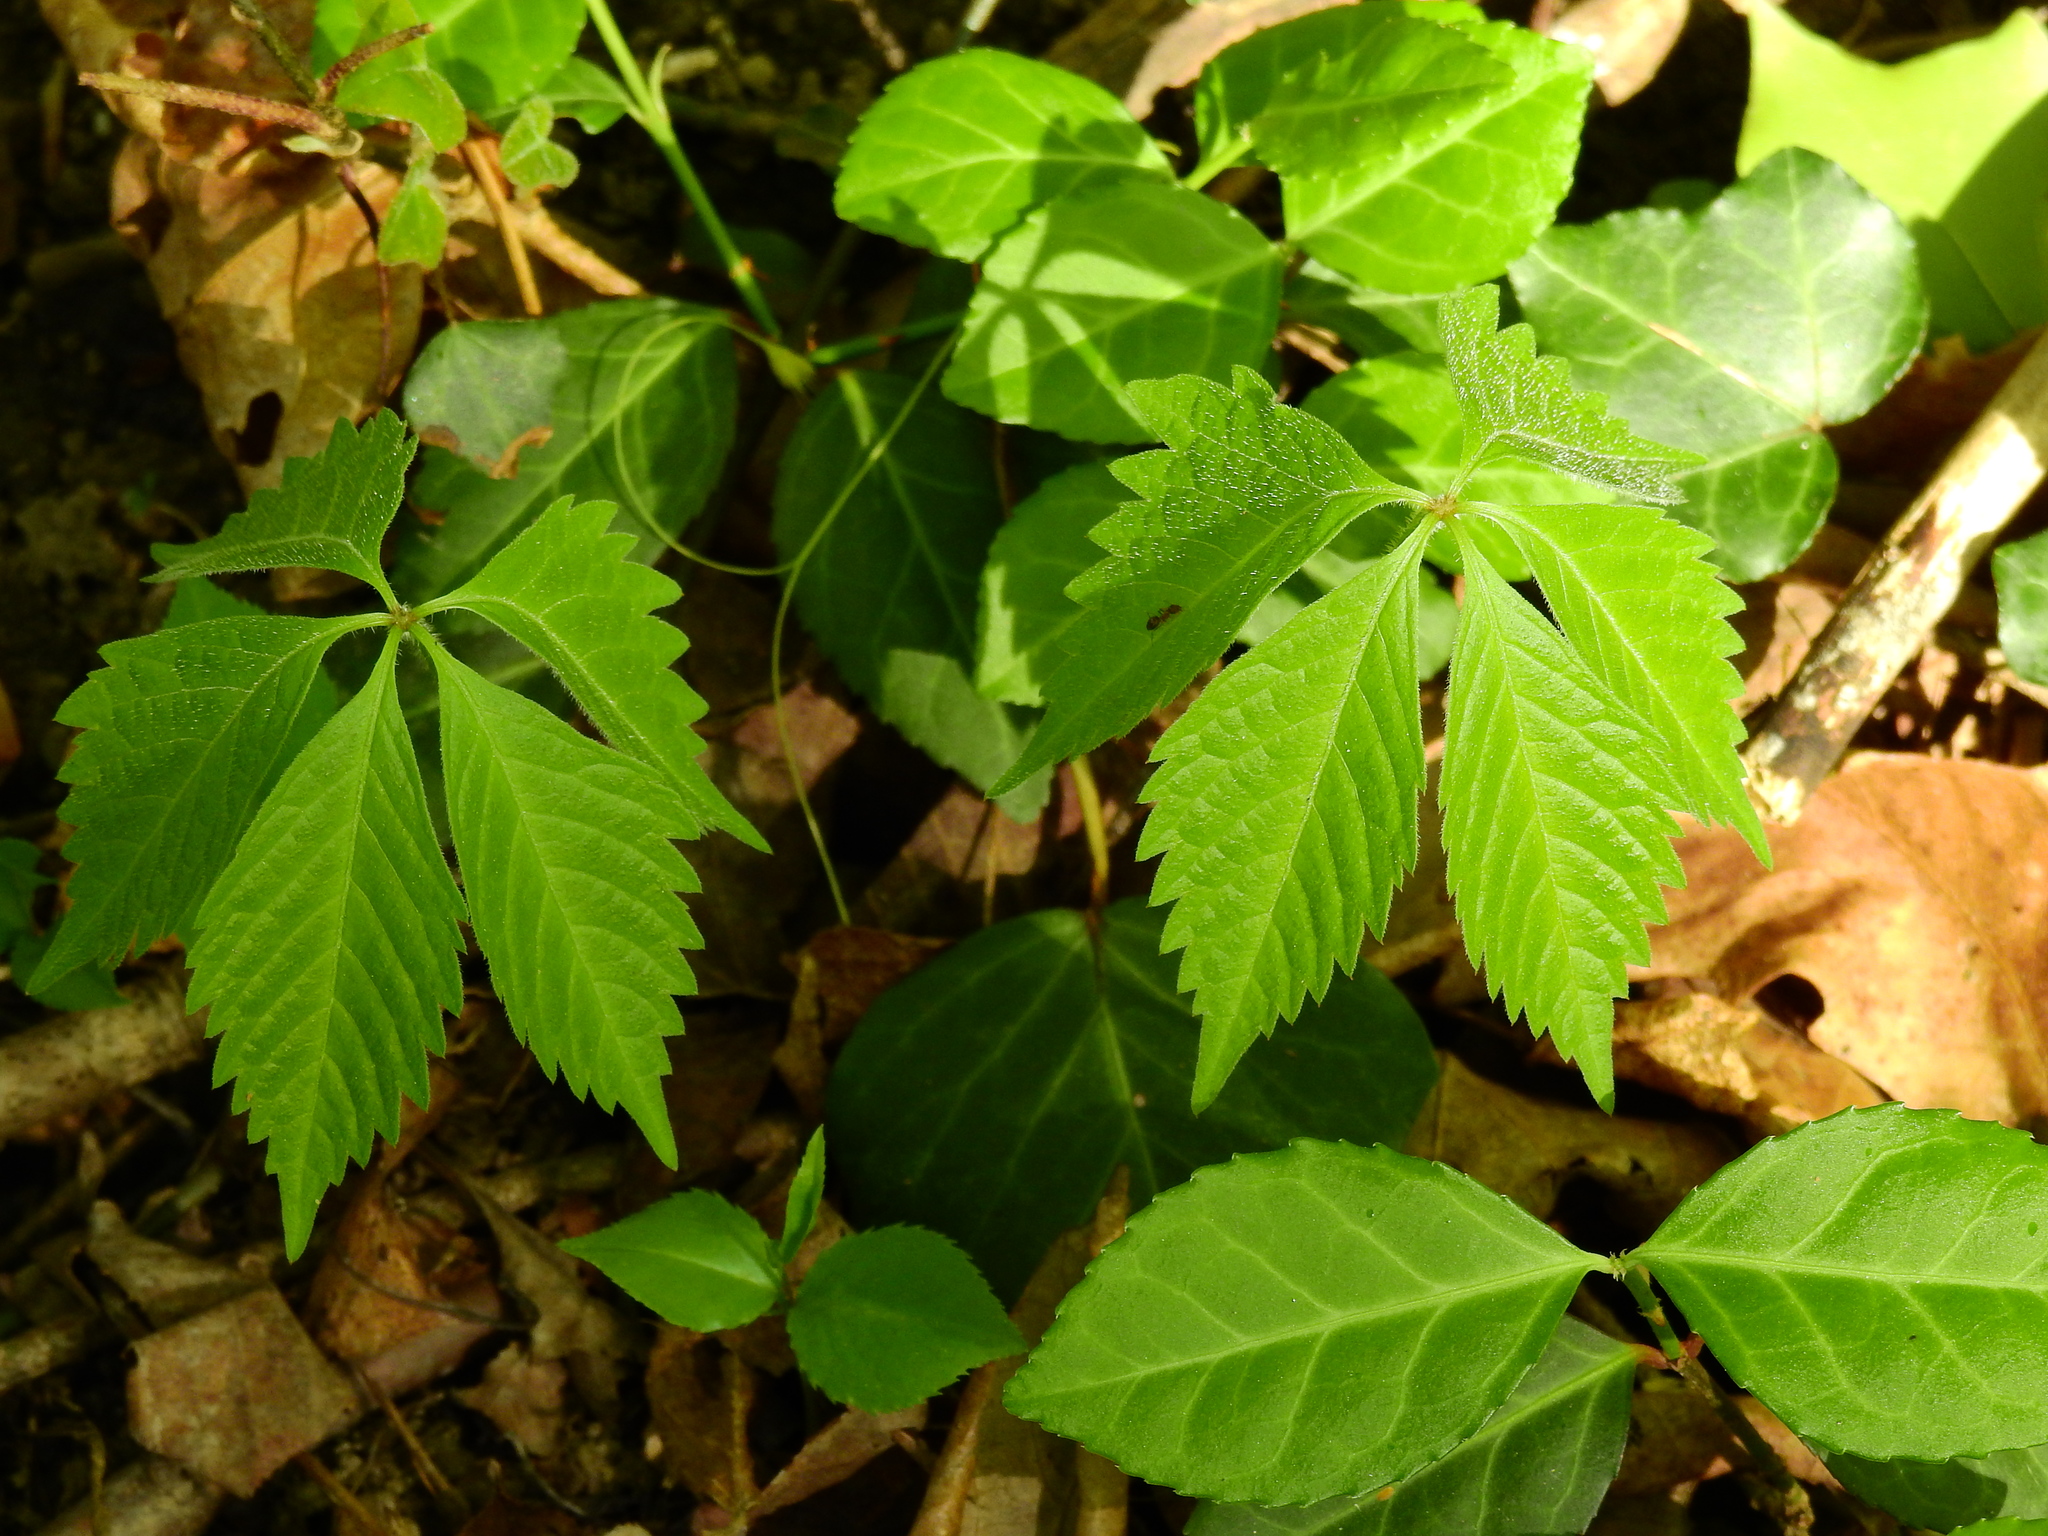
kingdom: Plantae
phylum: Tracheophyta
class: Magnoliopsida
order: Vitales
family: Vitaceae
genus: Parthenocissus
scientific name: Parthenocissus quinquefolia
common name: Virginia-creeper
